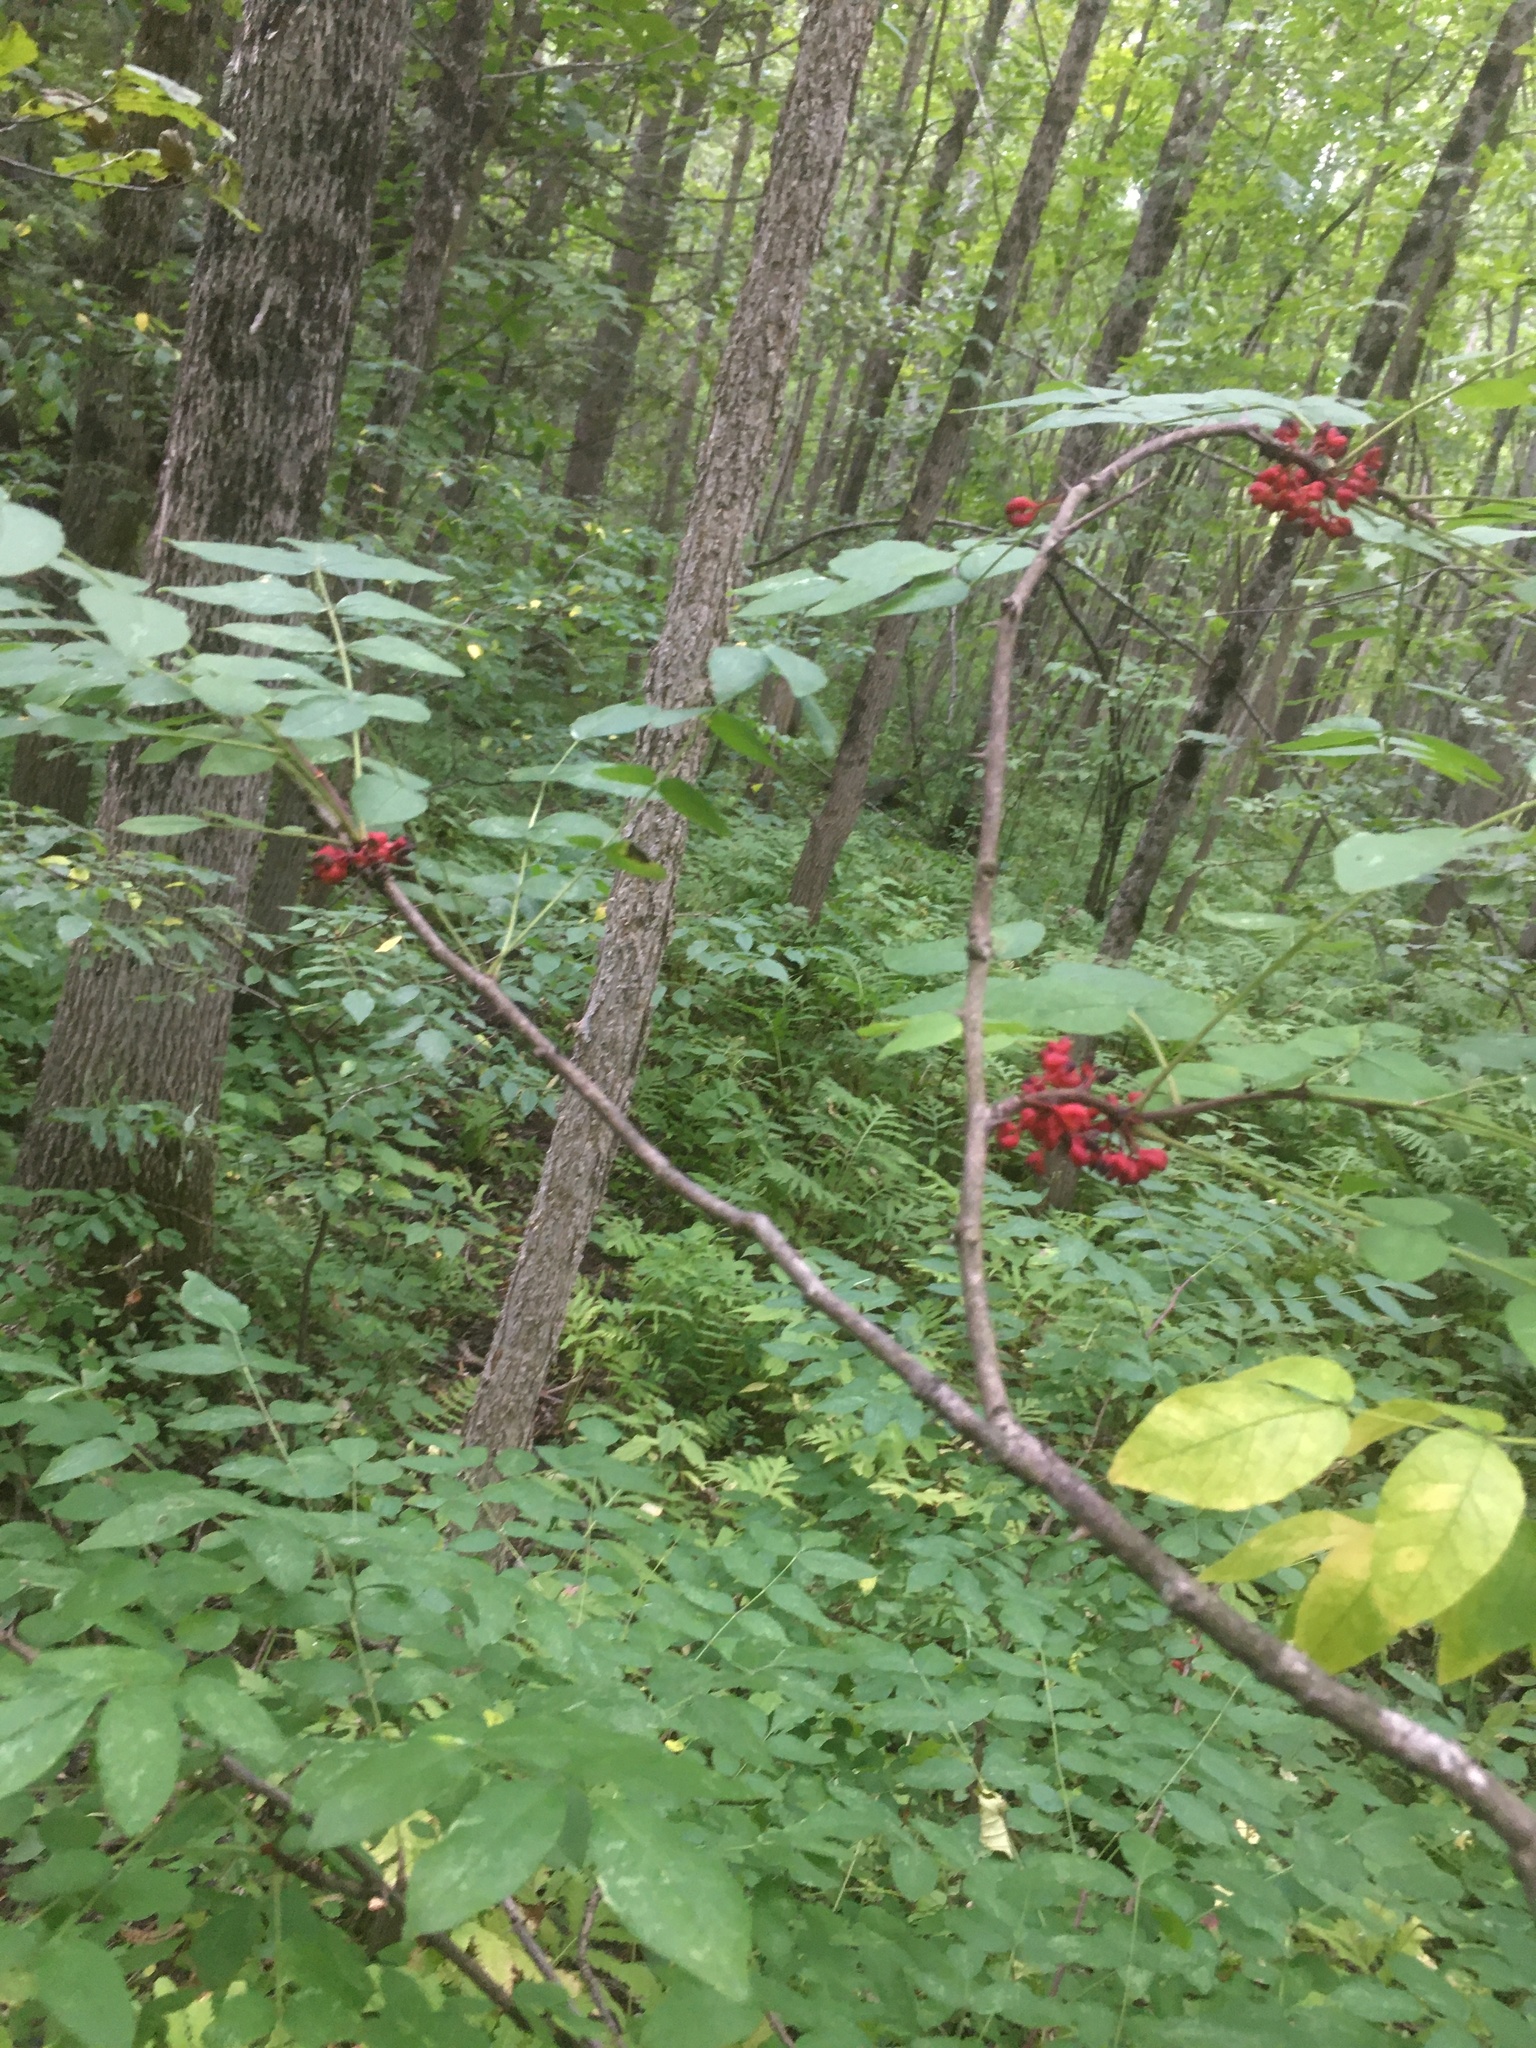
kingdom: Plantae
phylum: Tracheophyta
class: Magnoliopsida
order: Sapindales
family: Rutaceae
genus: Zanthoxylum
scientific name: Zanthoxylum americanum
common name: Northern prickly-ash
